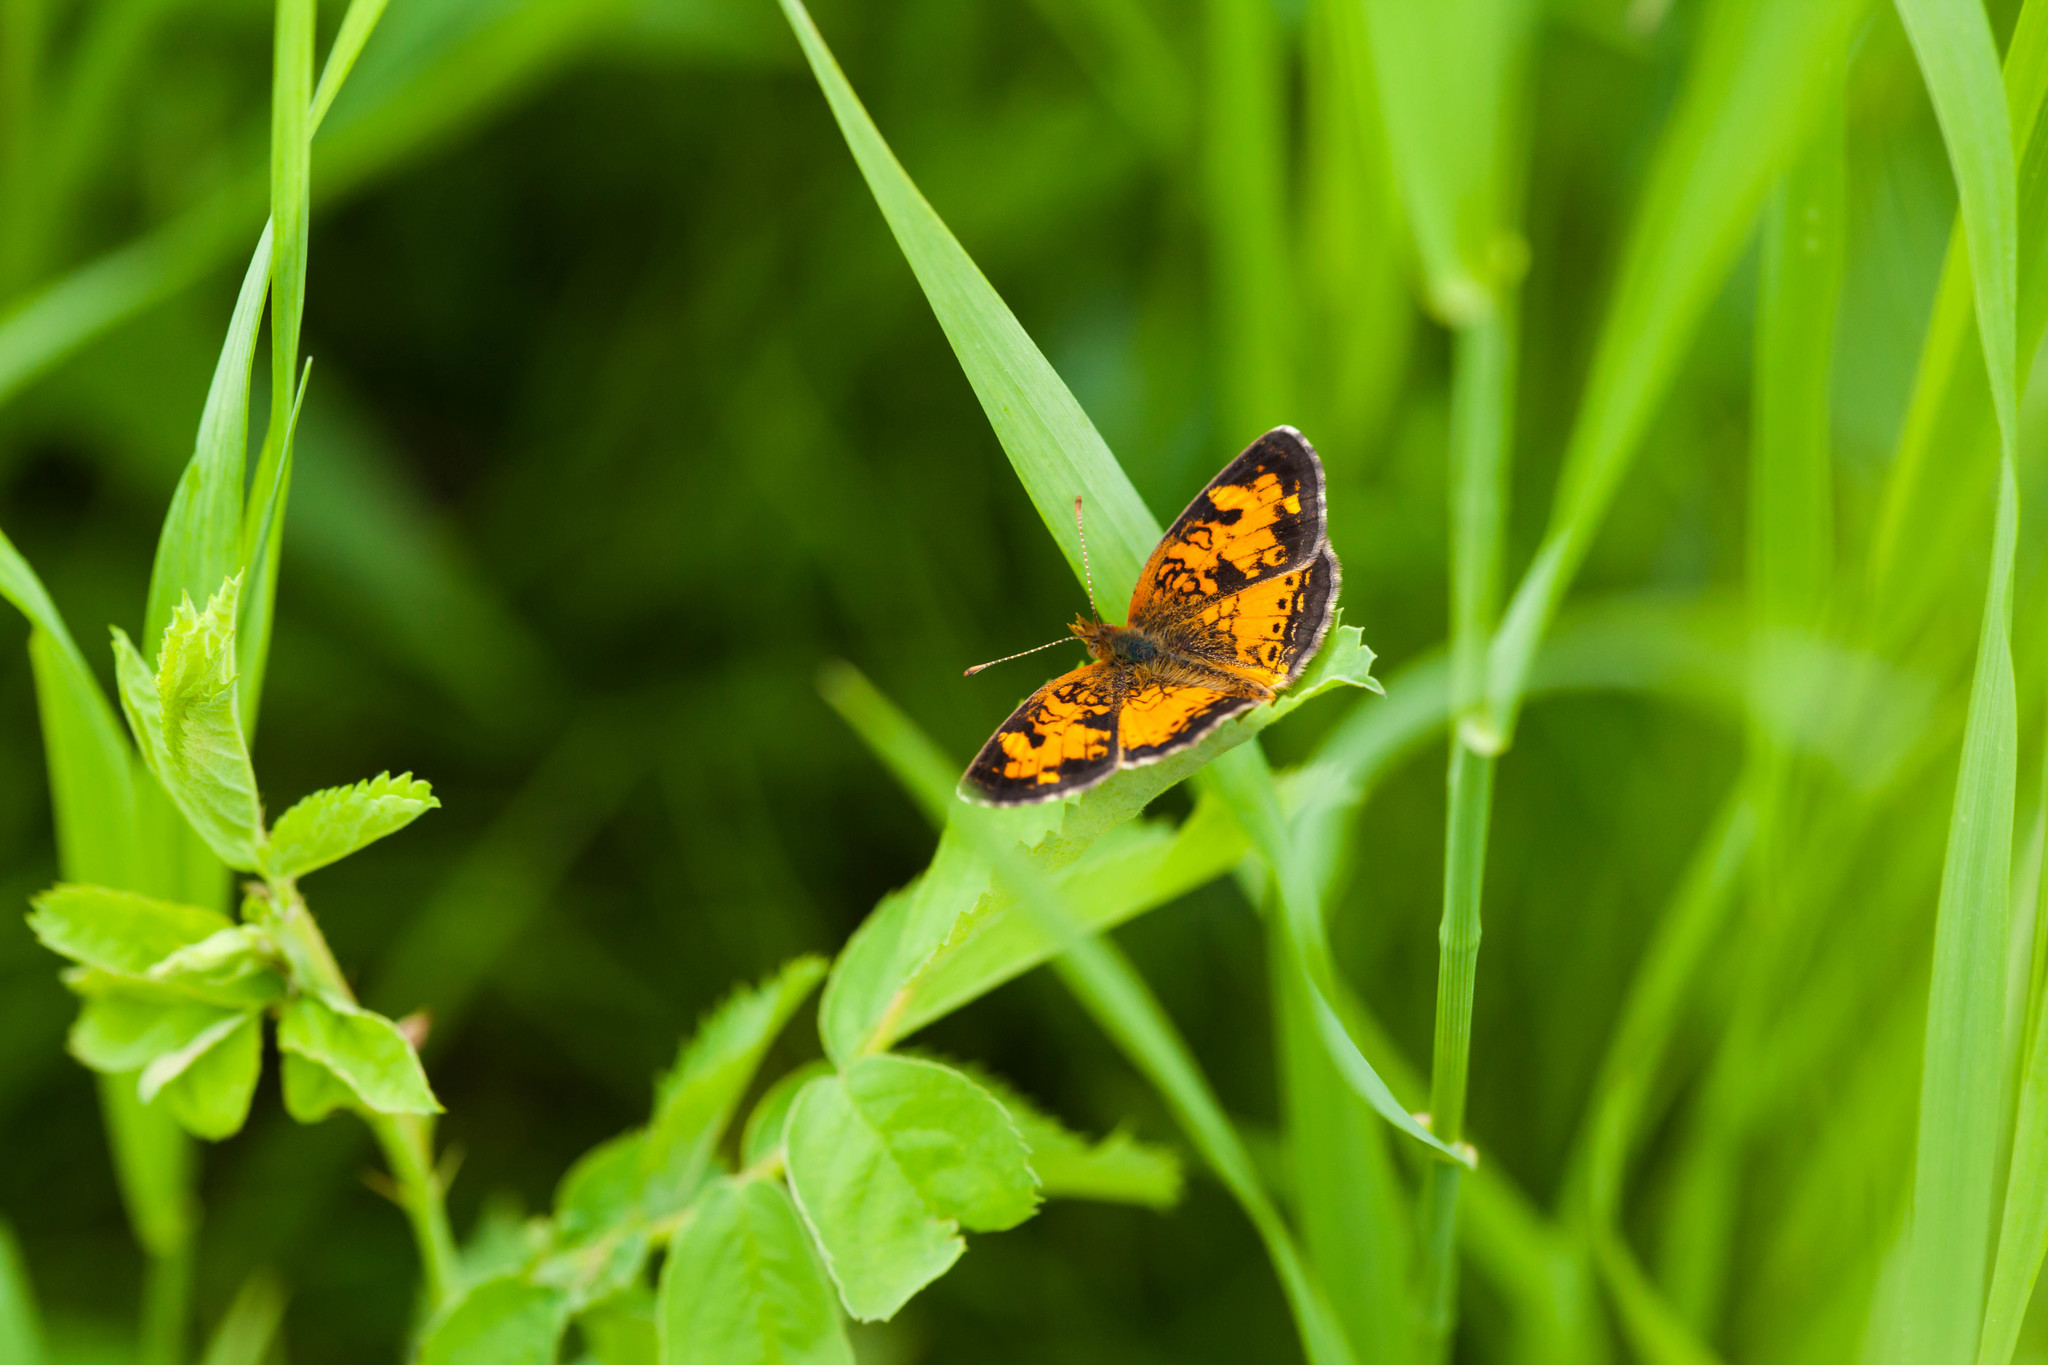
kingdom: Animalia
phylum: Arthropoda
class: Insecta
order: Lepidoptera
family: Nymphalidae
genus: Phyciodes
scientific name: Phyciodes tharos
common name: Pearl crescent
